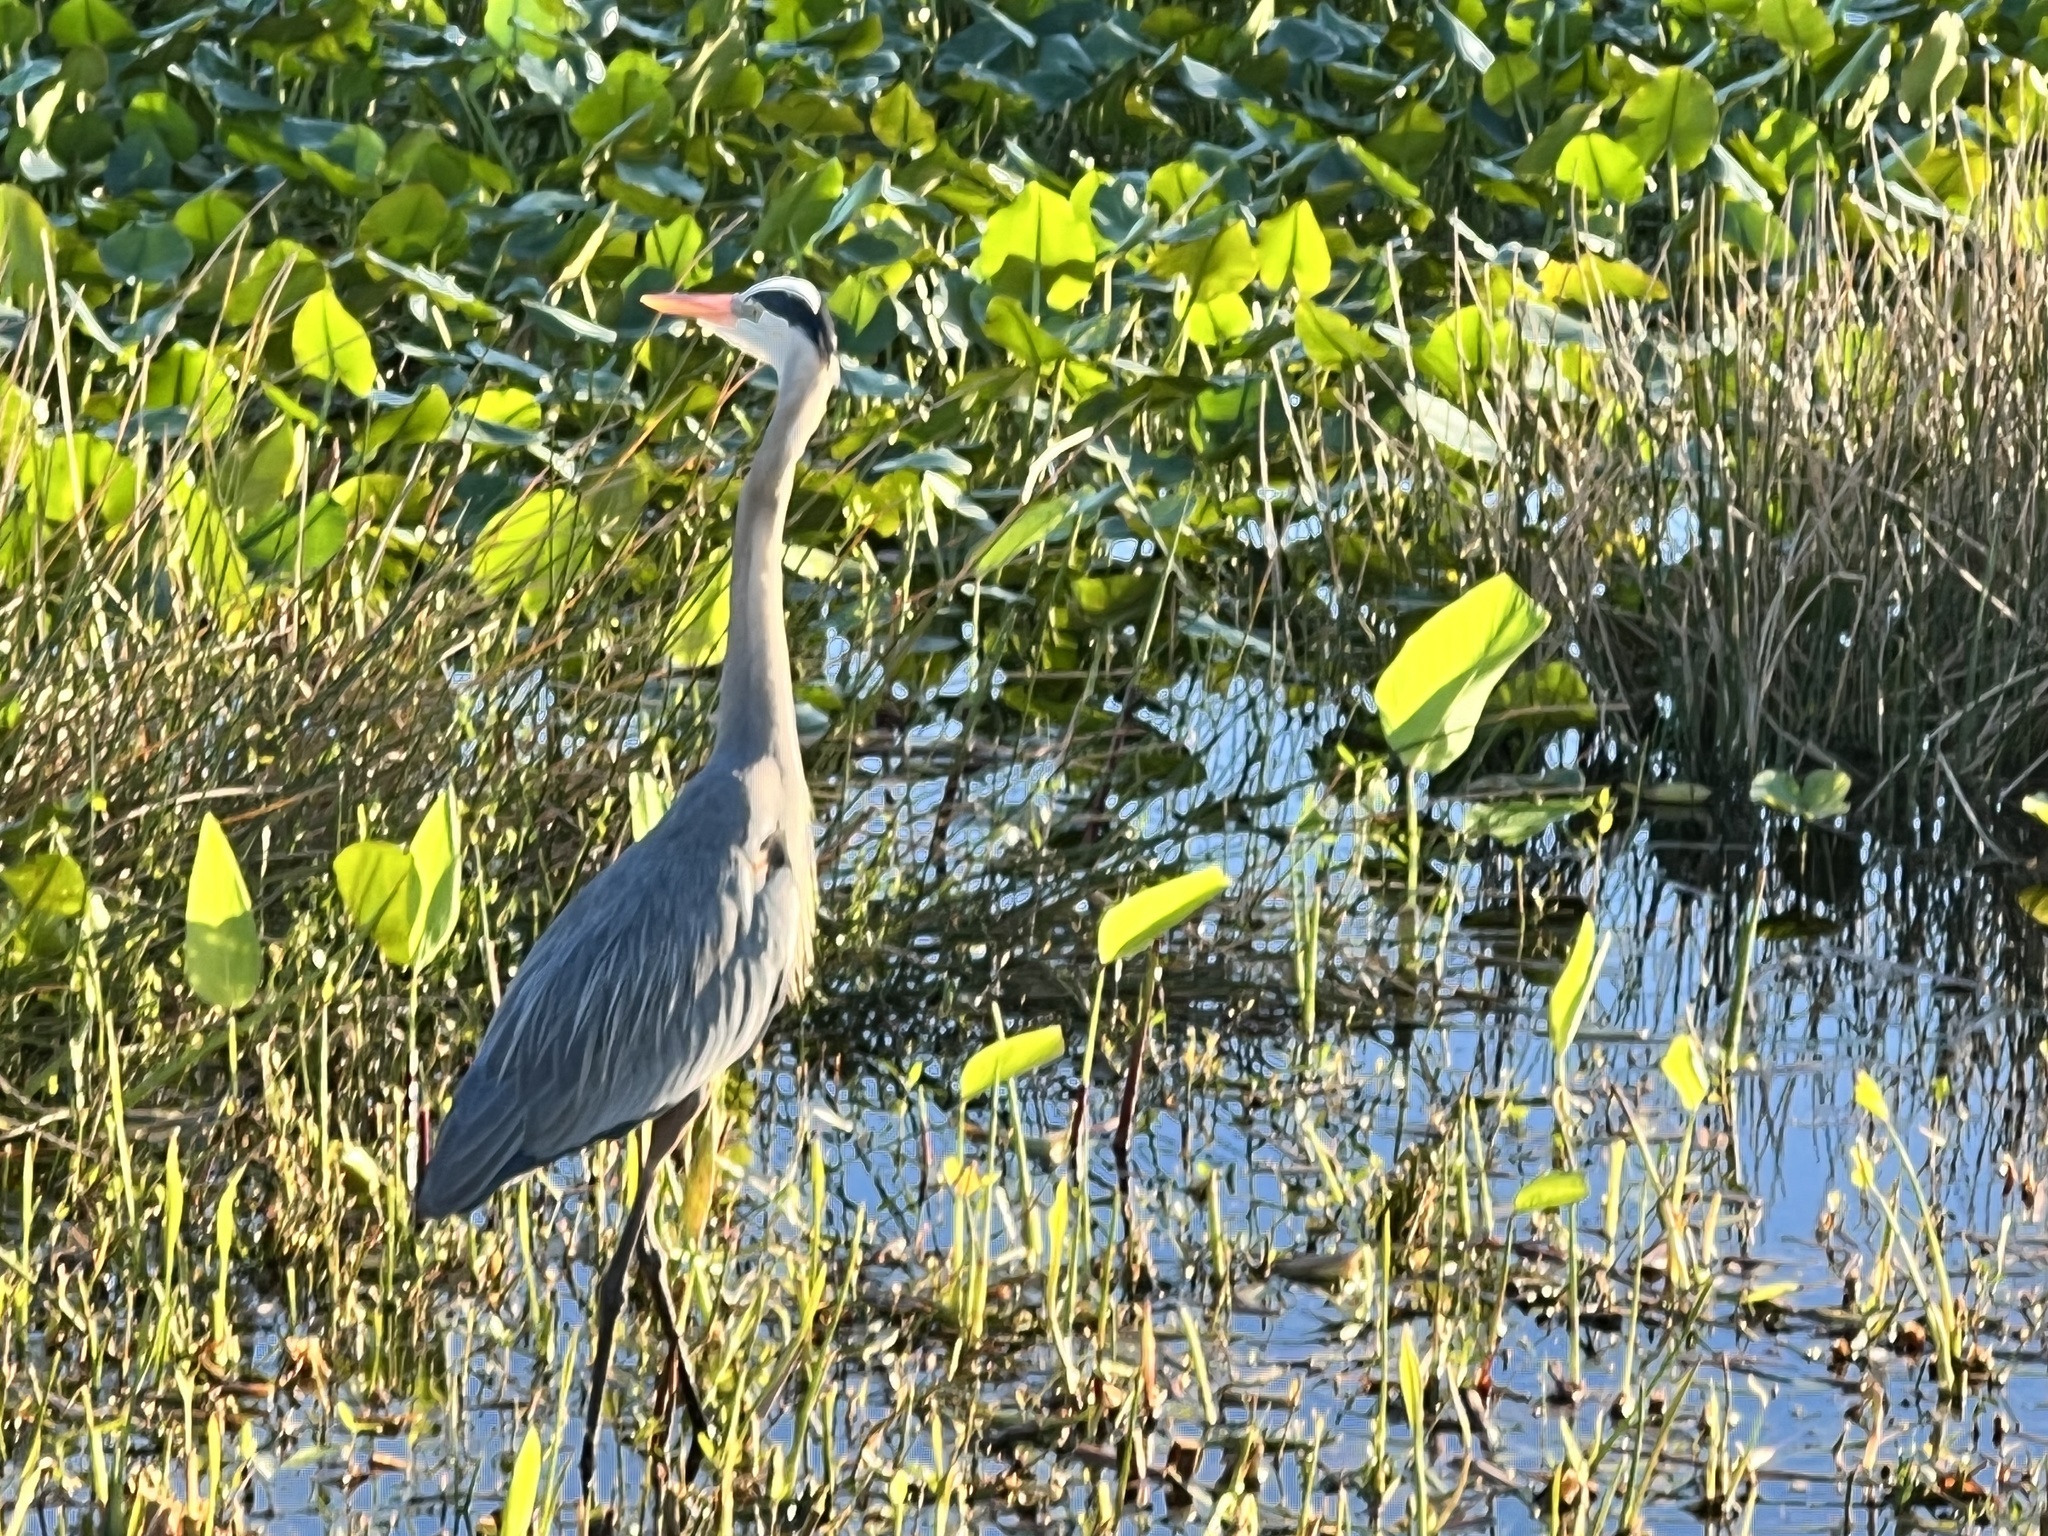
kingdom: Animalia
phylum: Chordata
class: Aves
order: Pelecaniformes
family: Ardeidae
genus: Ardea
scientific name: Ardea herodias
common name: Great blue heron
